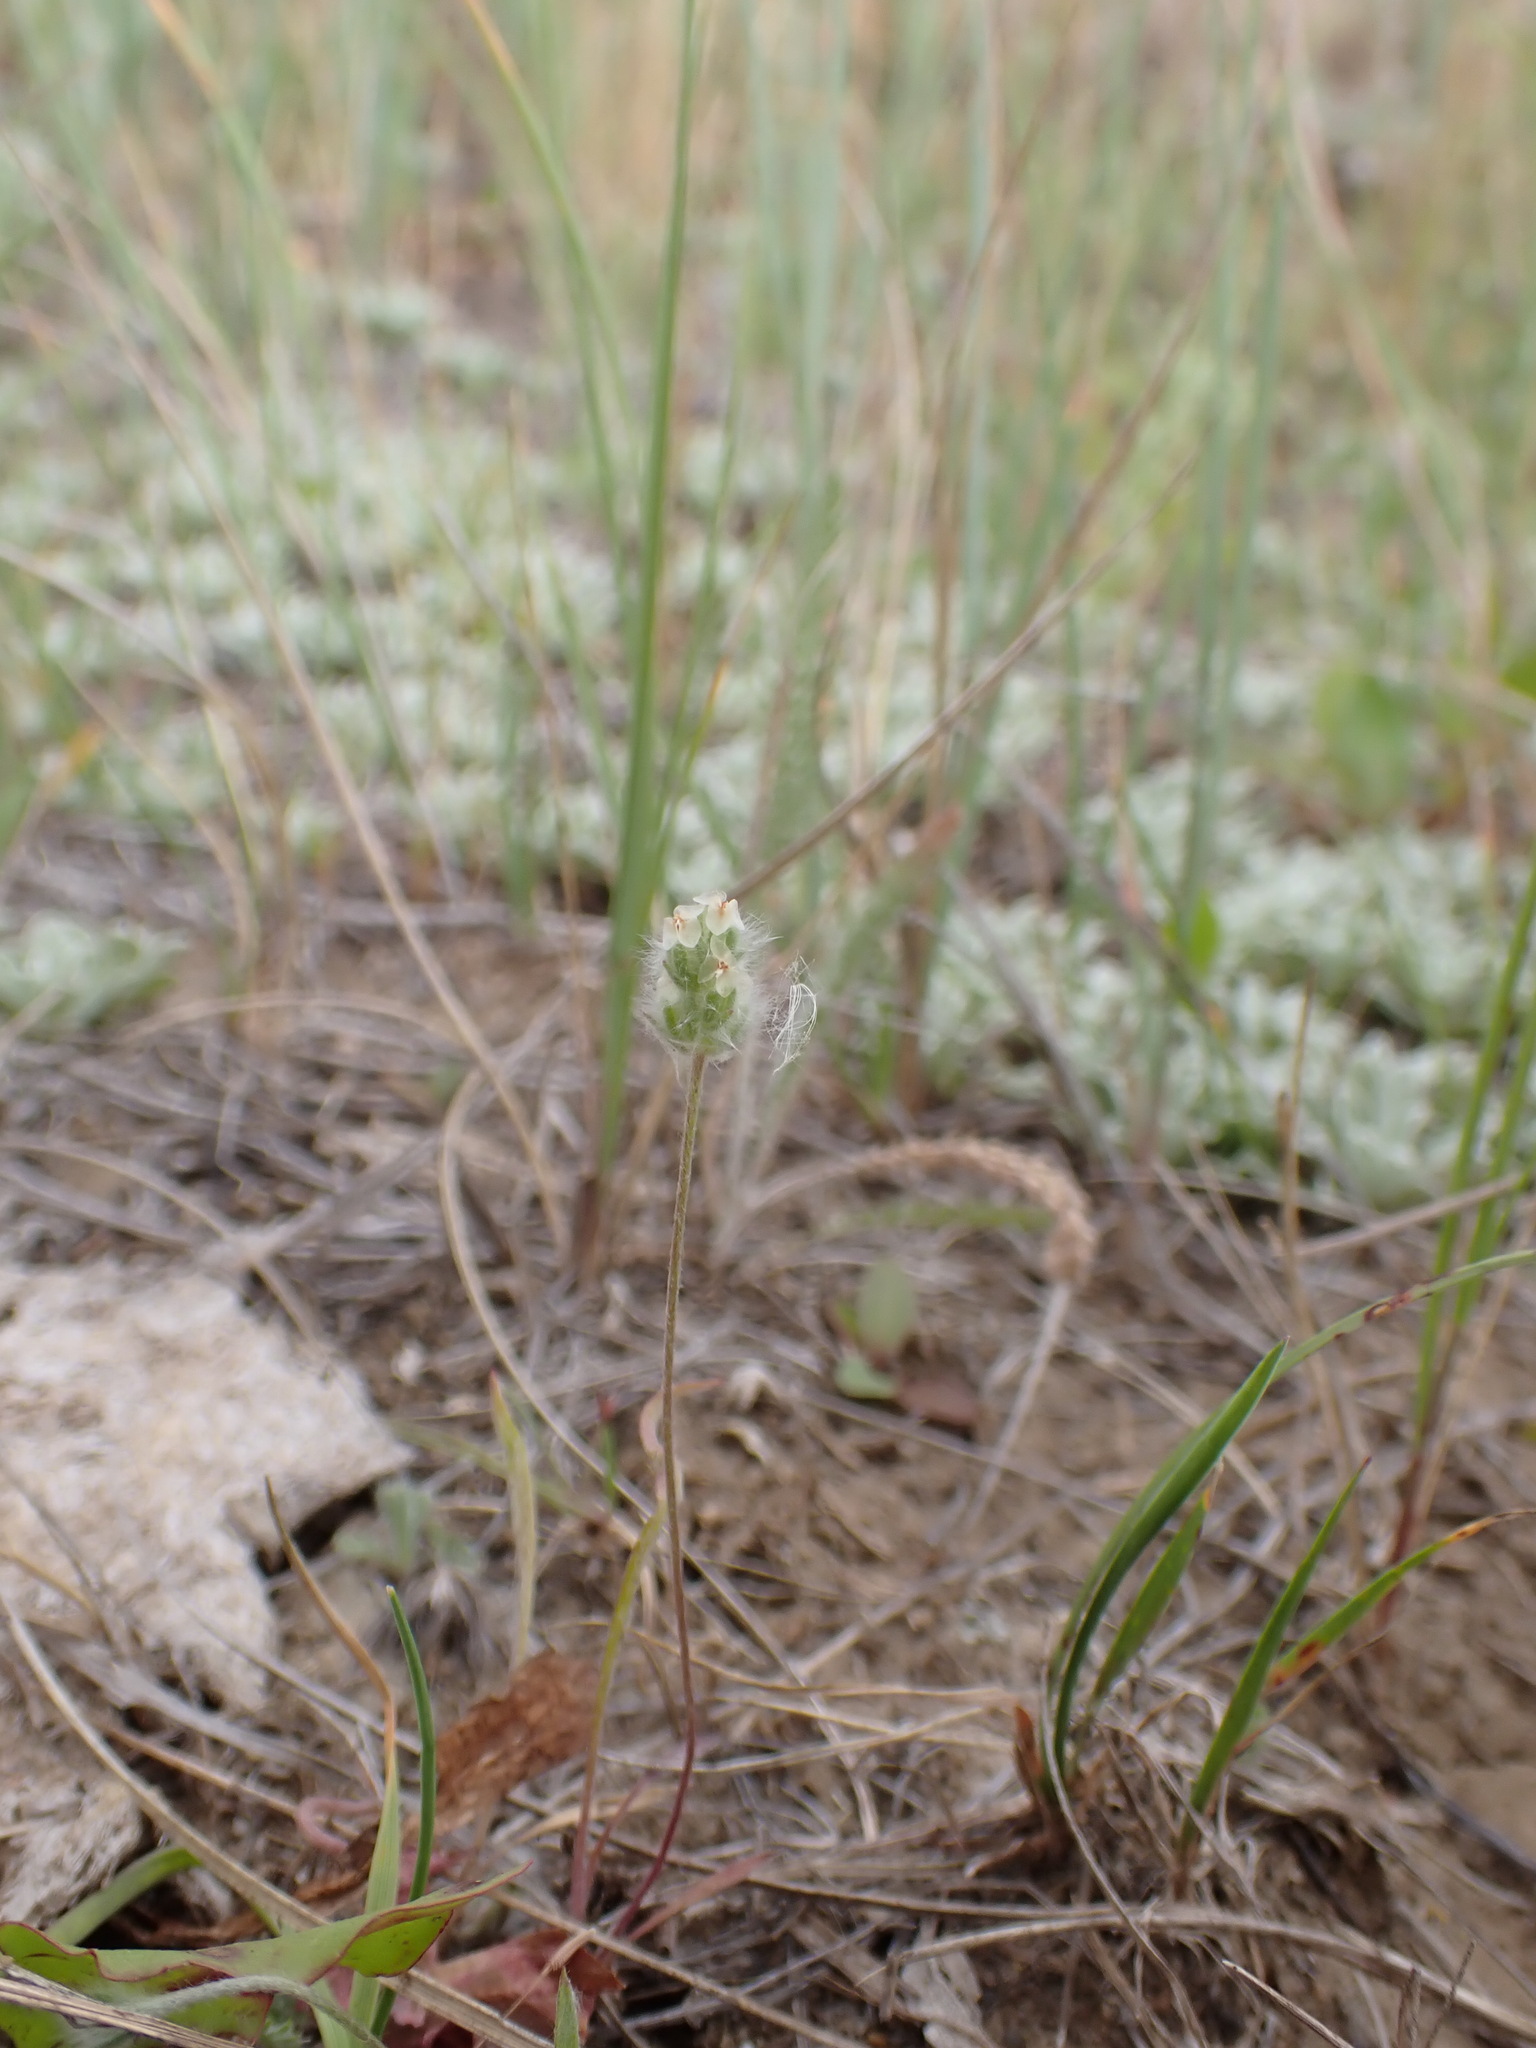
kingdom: Plantae
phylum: Tracheophyta
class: Magnoliopsida
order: Lamiales
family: Plantaginaceae
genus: Plantago
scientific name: Plantago patagonica
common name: Patagonia indian-wheat
